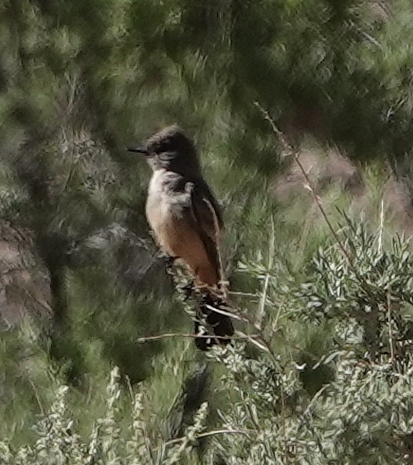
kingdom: Animalia
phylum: Chordata
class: Aves
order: Passeriformes
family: Tyrannidae
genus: Sayornis
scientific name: Sayornis saya
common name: Say's phoebe
